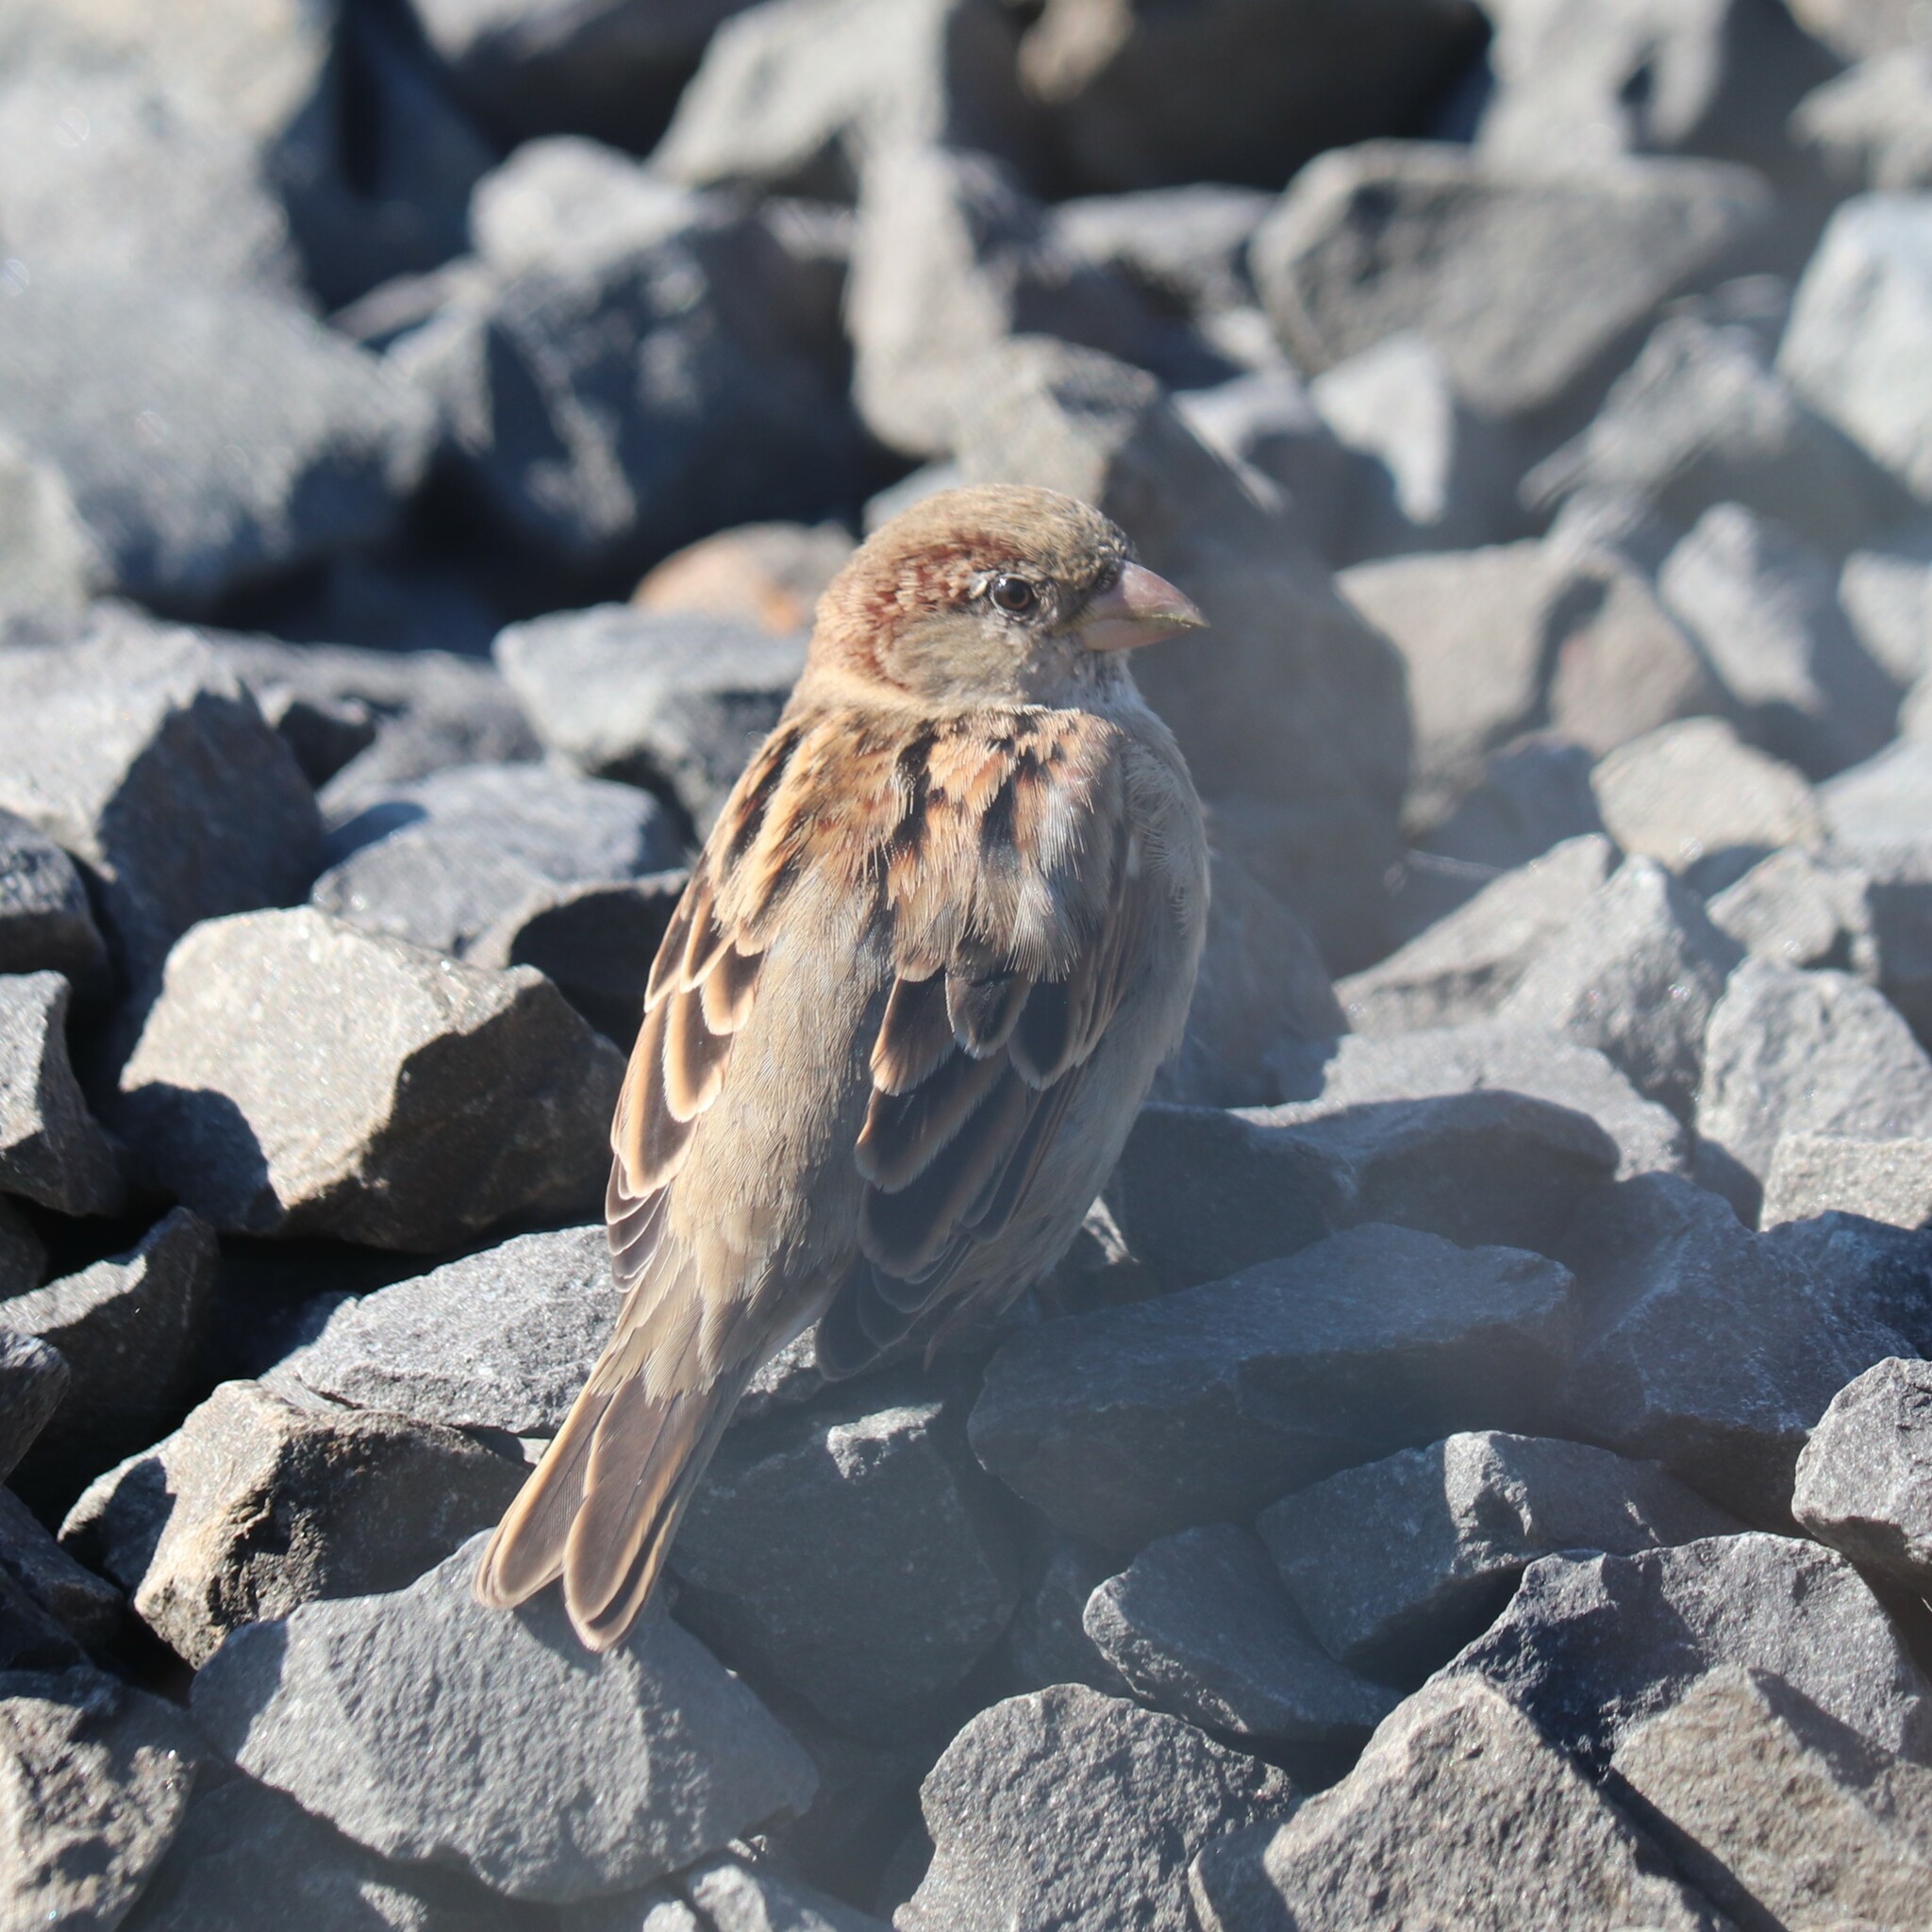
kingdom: Animalia
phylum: Chordata
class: Aves
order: Passeriformes
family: Passeridae
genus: Passer
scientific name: Passer domesticus
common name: House sparrow
